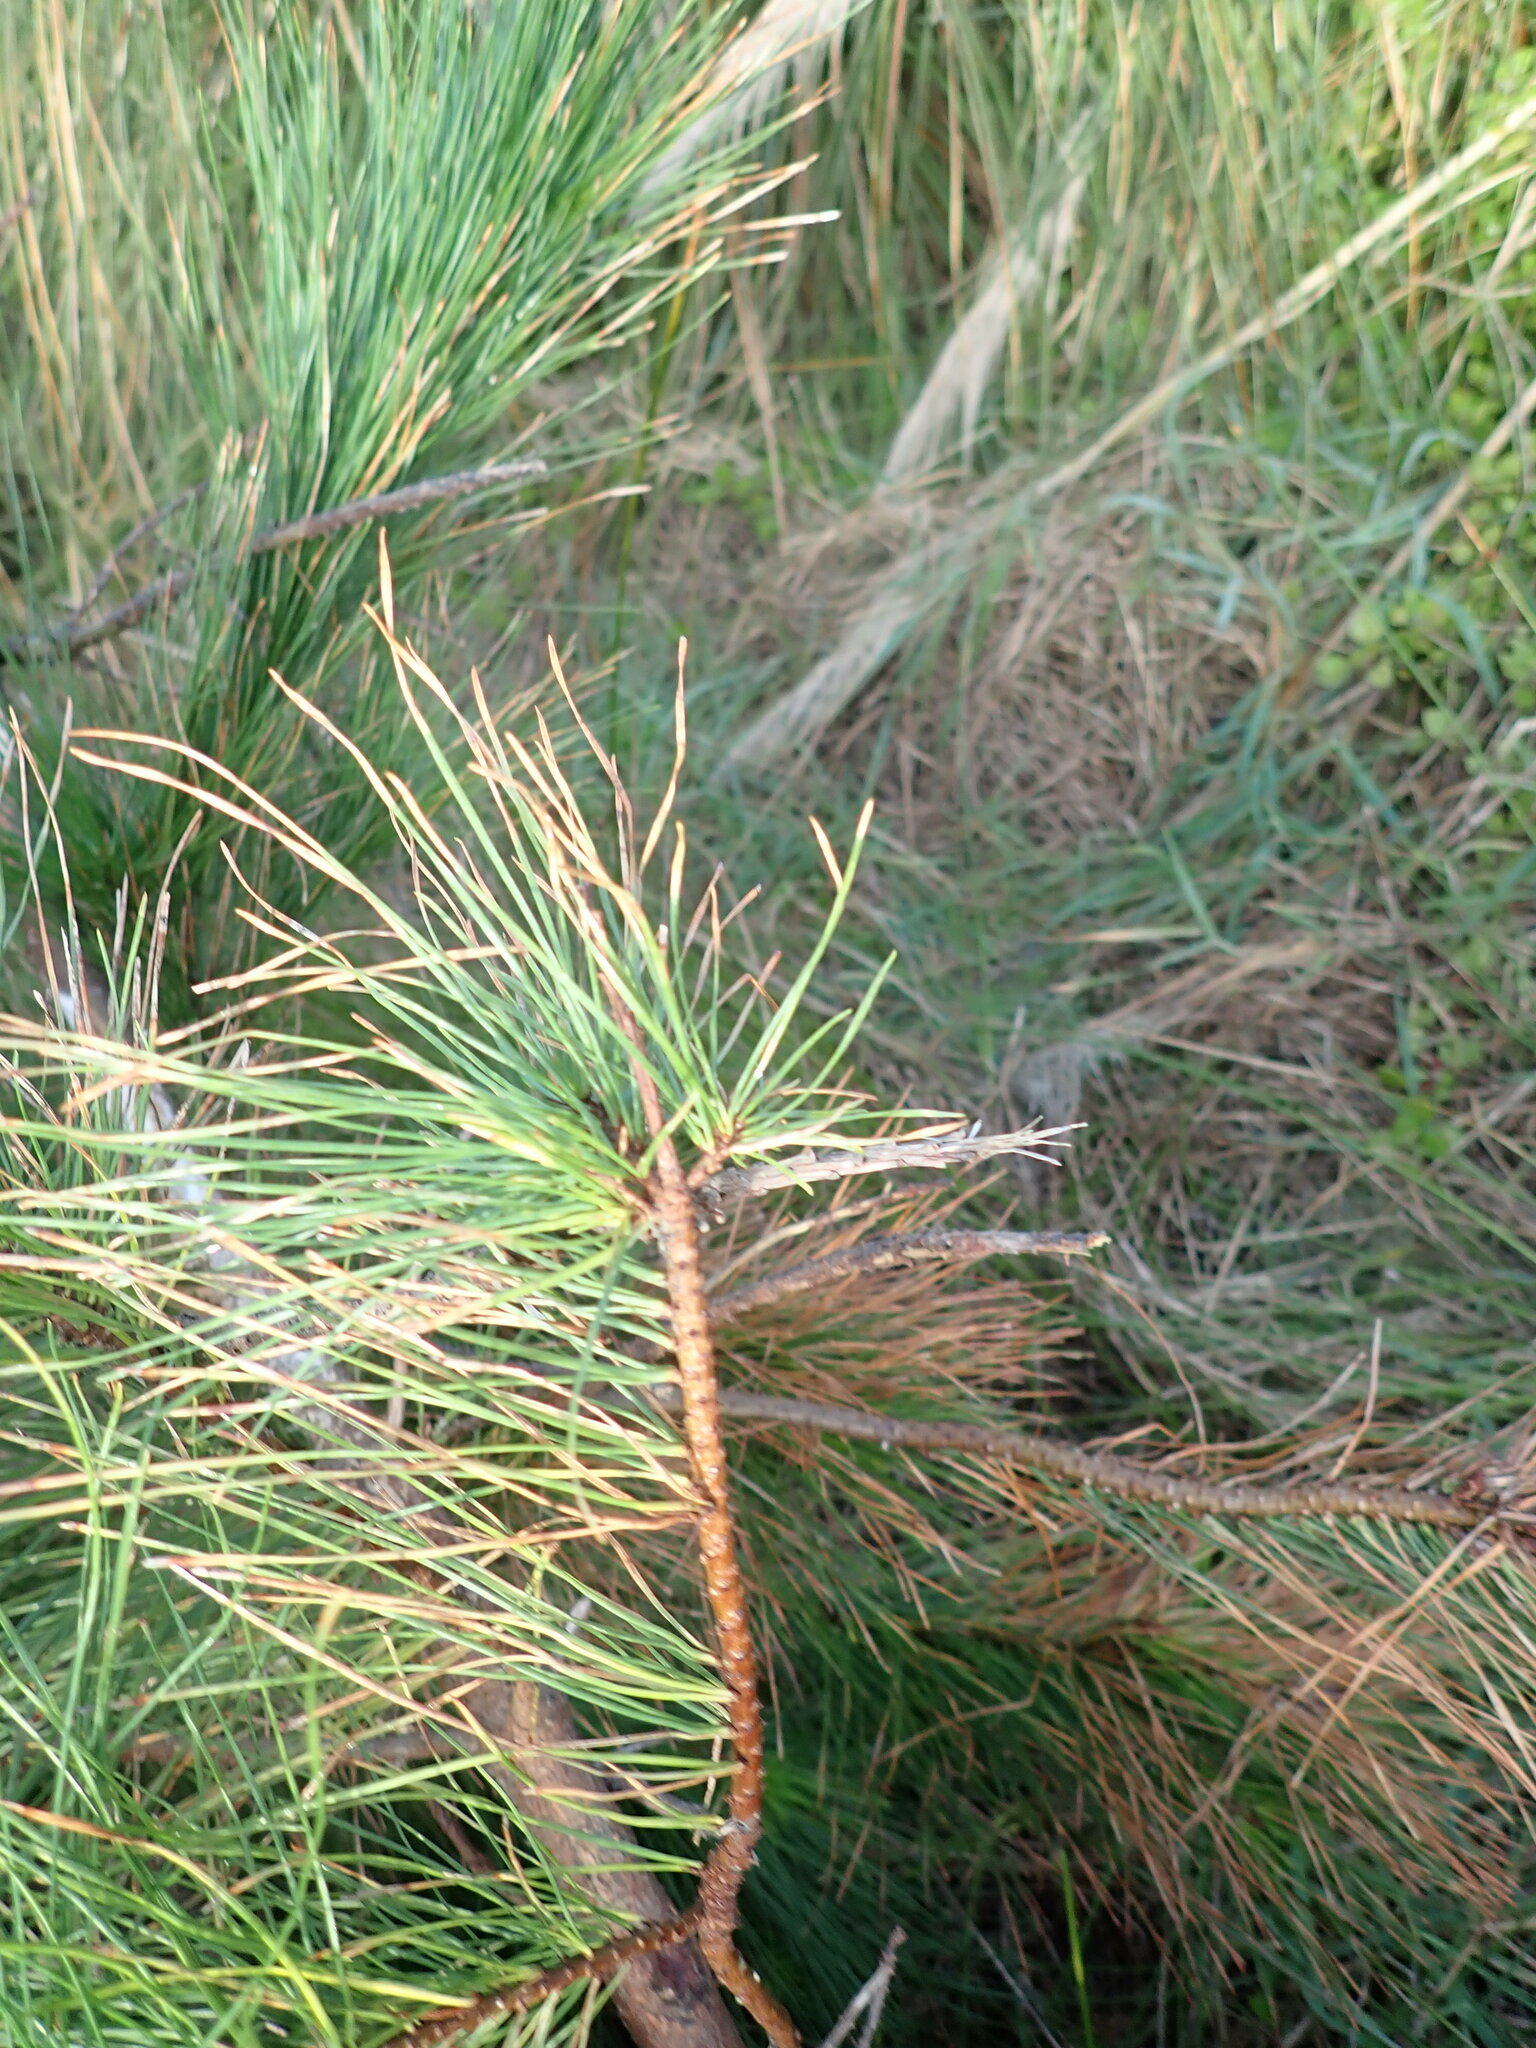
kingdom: Plantae
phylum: Tracheophyta
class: Pinopsida
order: Pinales
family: Pinaceae
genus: Pinus
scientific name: Pinus radiata
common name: Monterey pine
